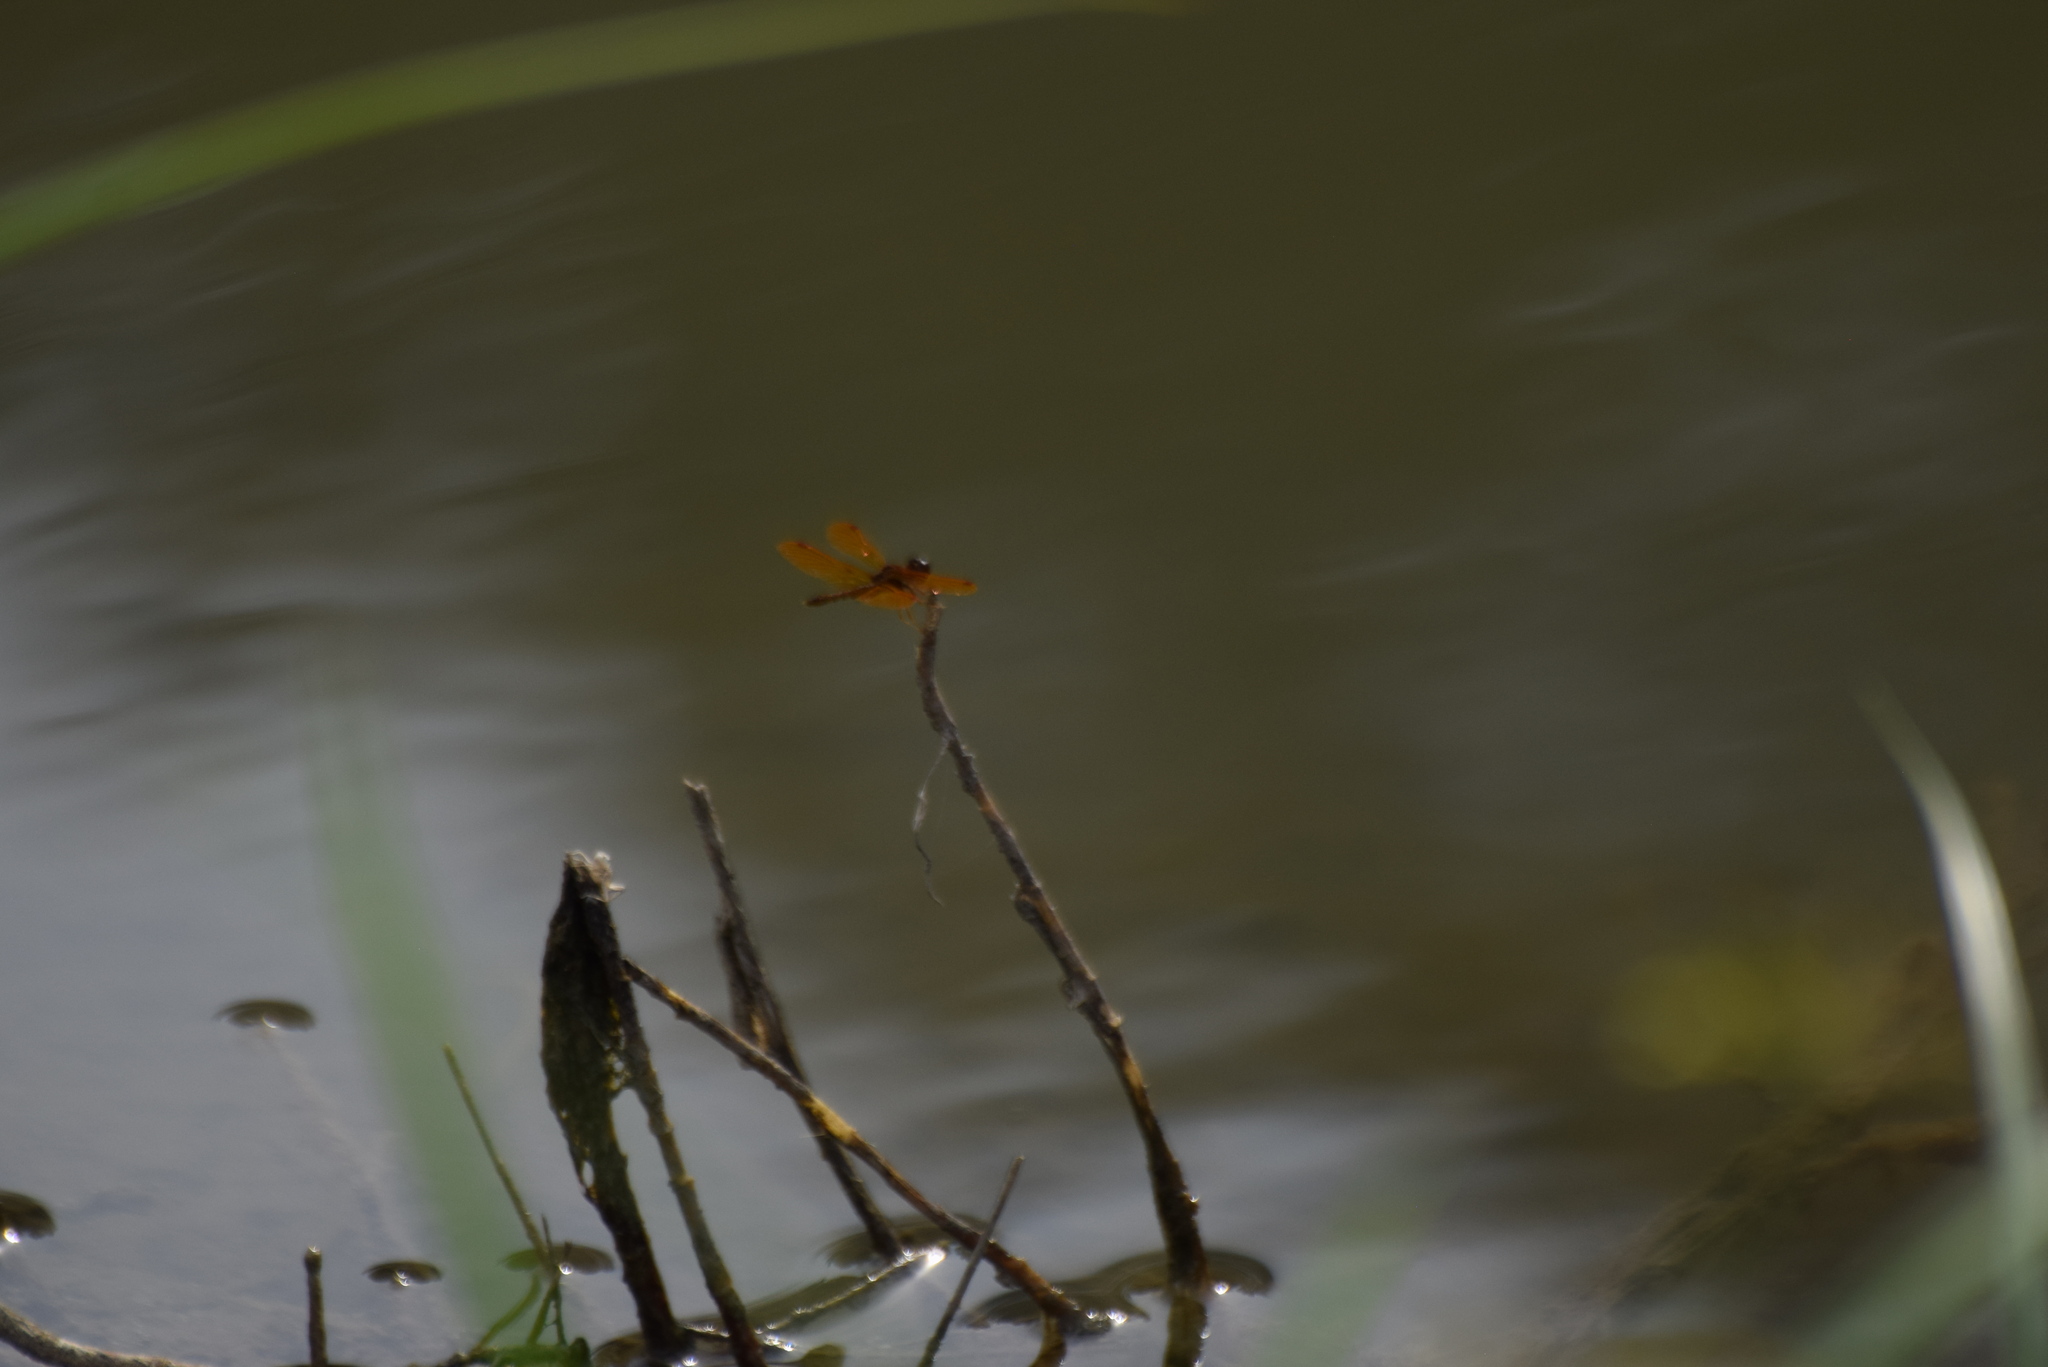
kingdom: Animalia
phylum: Arthropoda
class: Insecta
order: Odonata
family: Libellulidae
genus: Perithemis
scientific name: Perithemis tenera
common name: Eastern amberwing
